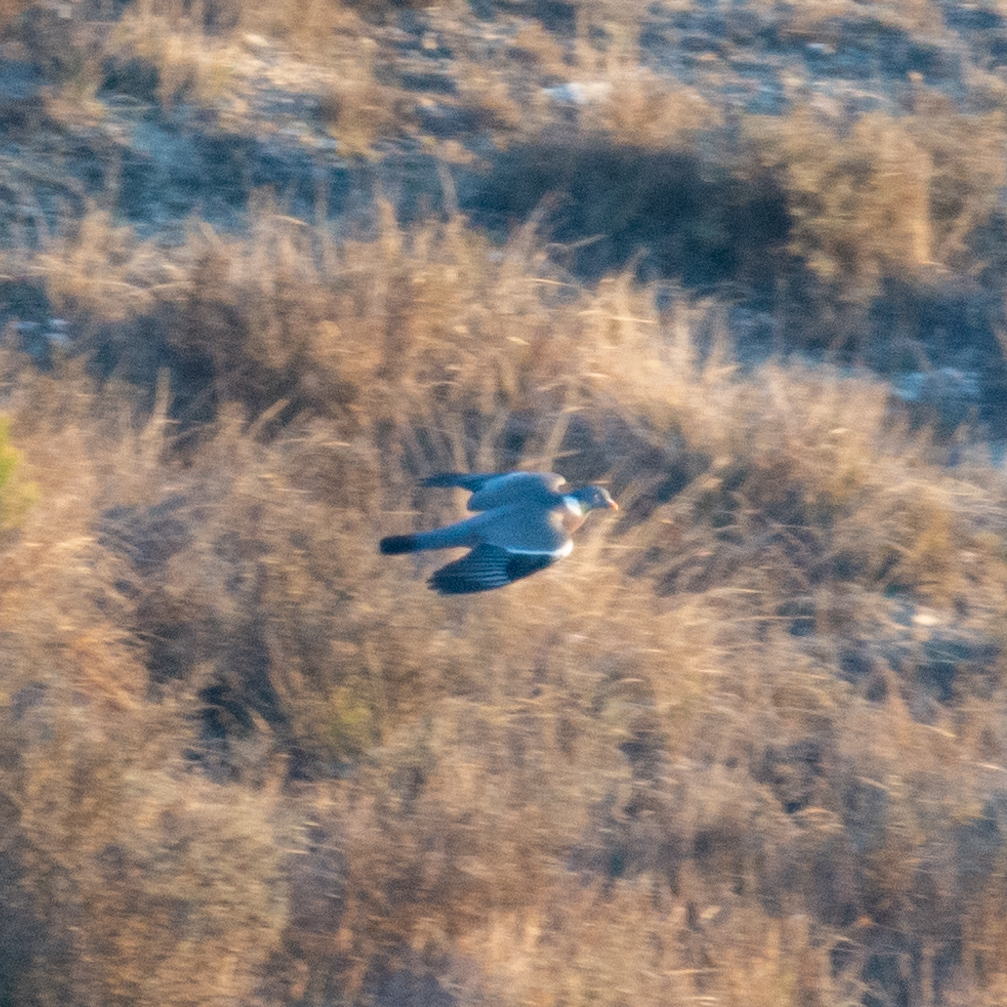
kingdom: Animalia
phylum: Chordata
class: Aves
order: Columbiformes
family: Columbidae
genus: Columba
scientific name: Columba palumbus
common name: Common wood pigeon
